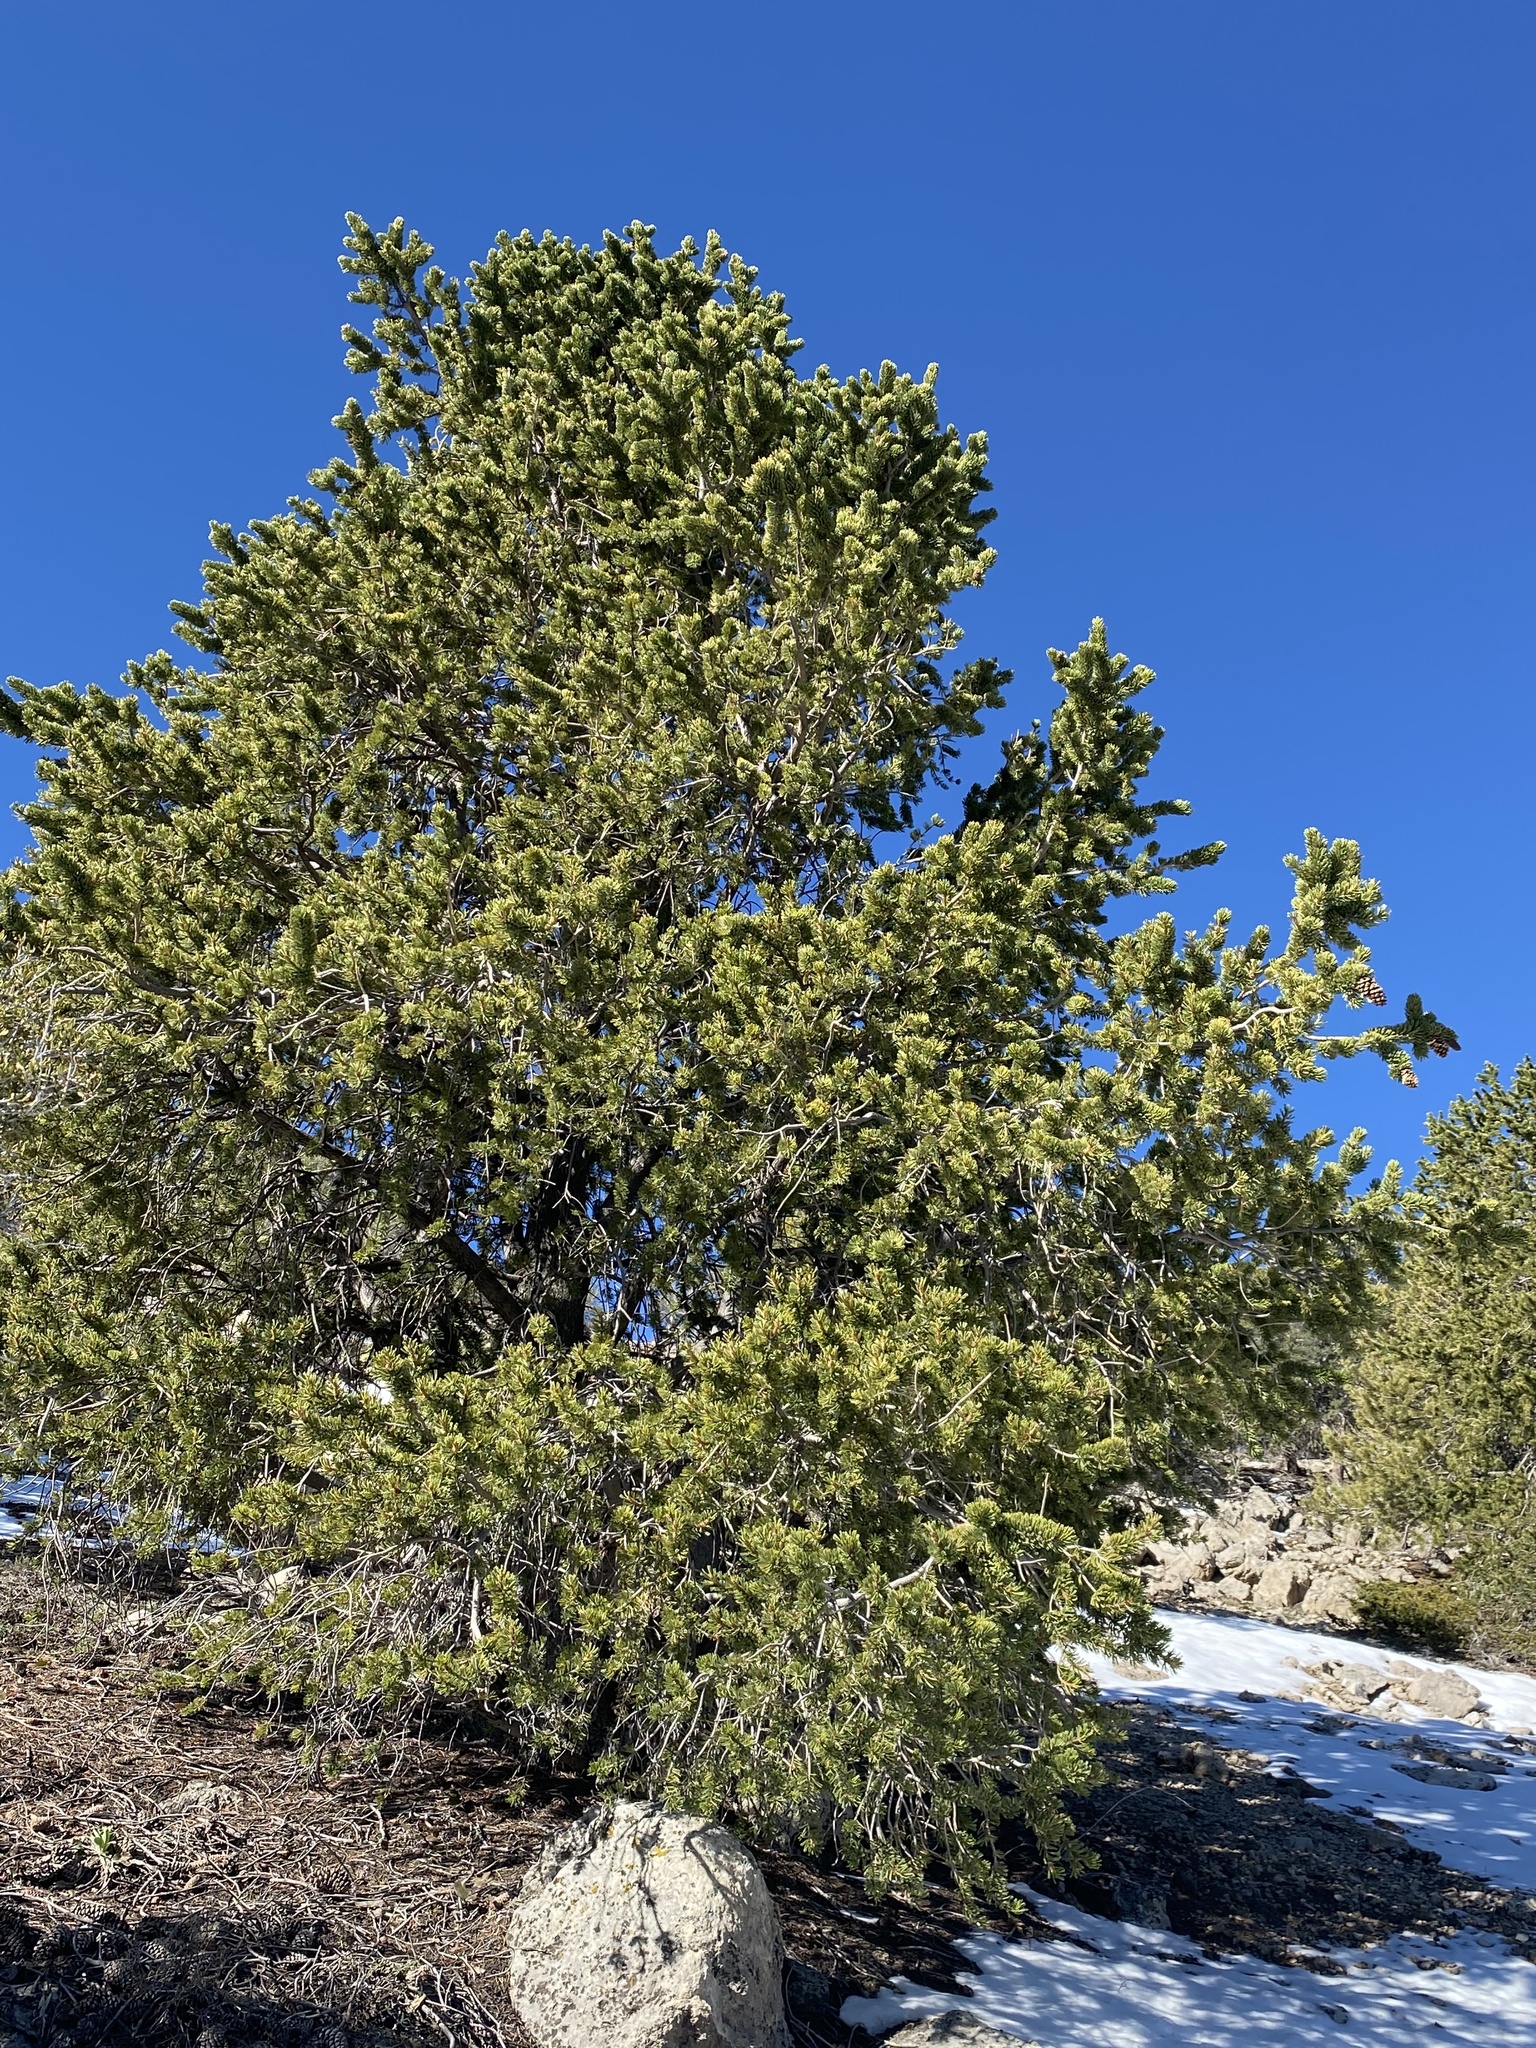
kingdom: Plantae
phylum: Tracheophyta
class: Pinopsida
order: Pinales
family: Pinaceae
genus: Pinus
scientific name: Pinus longaeva
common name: Intermountain bristlecone pine
